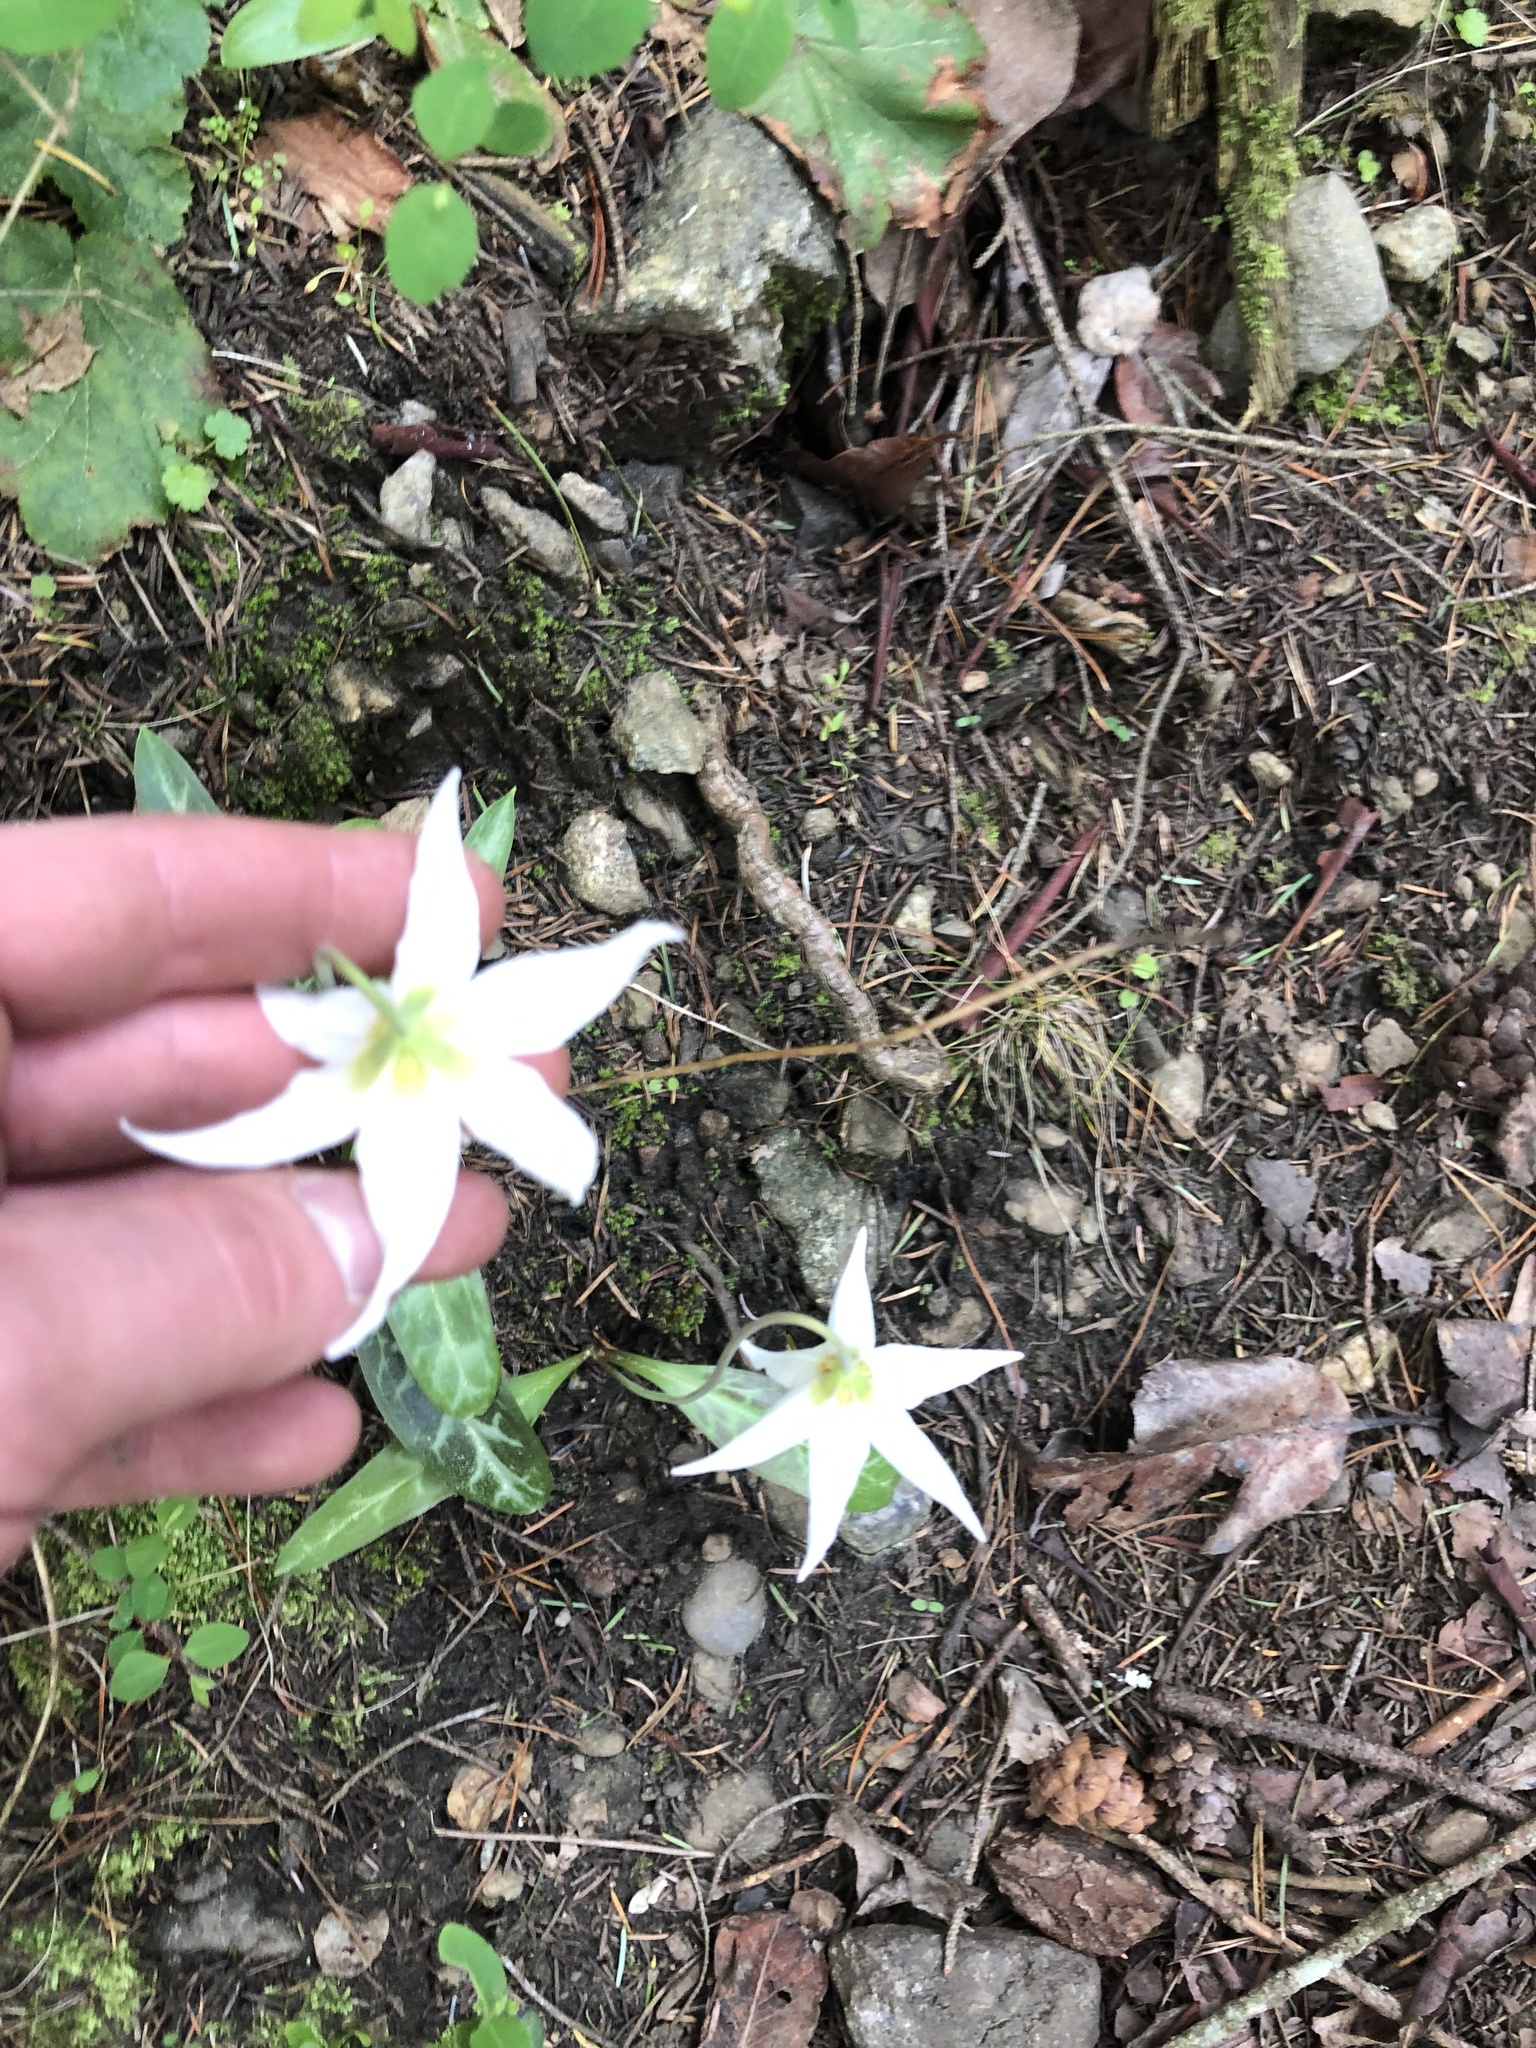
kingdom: Plantae
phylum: Tracheophyta
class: Liliopsida
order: Liliales
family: Liliaceae
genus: Erythronium
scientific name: Erythronium oregonum
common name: Giant adder's-tongue
